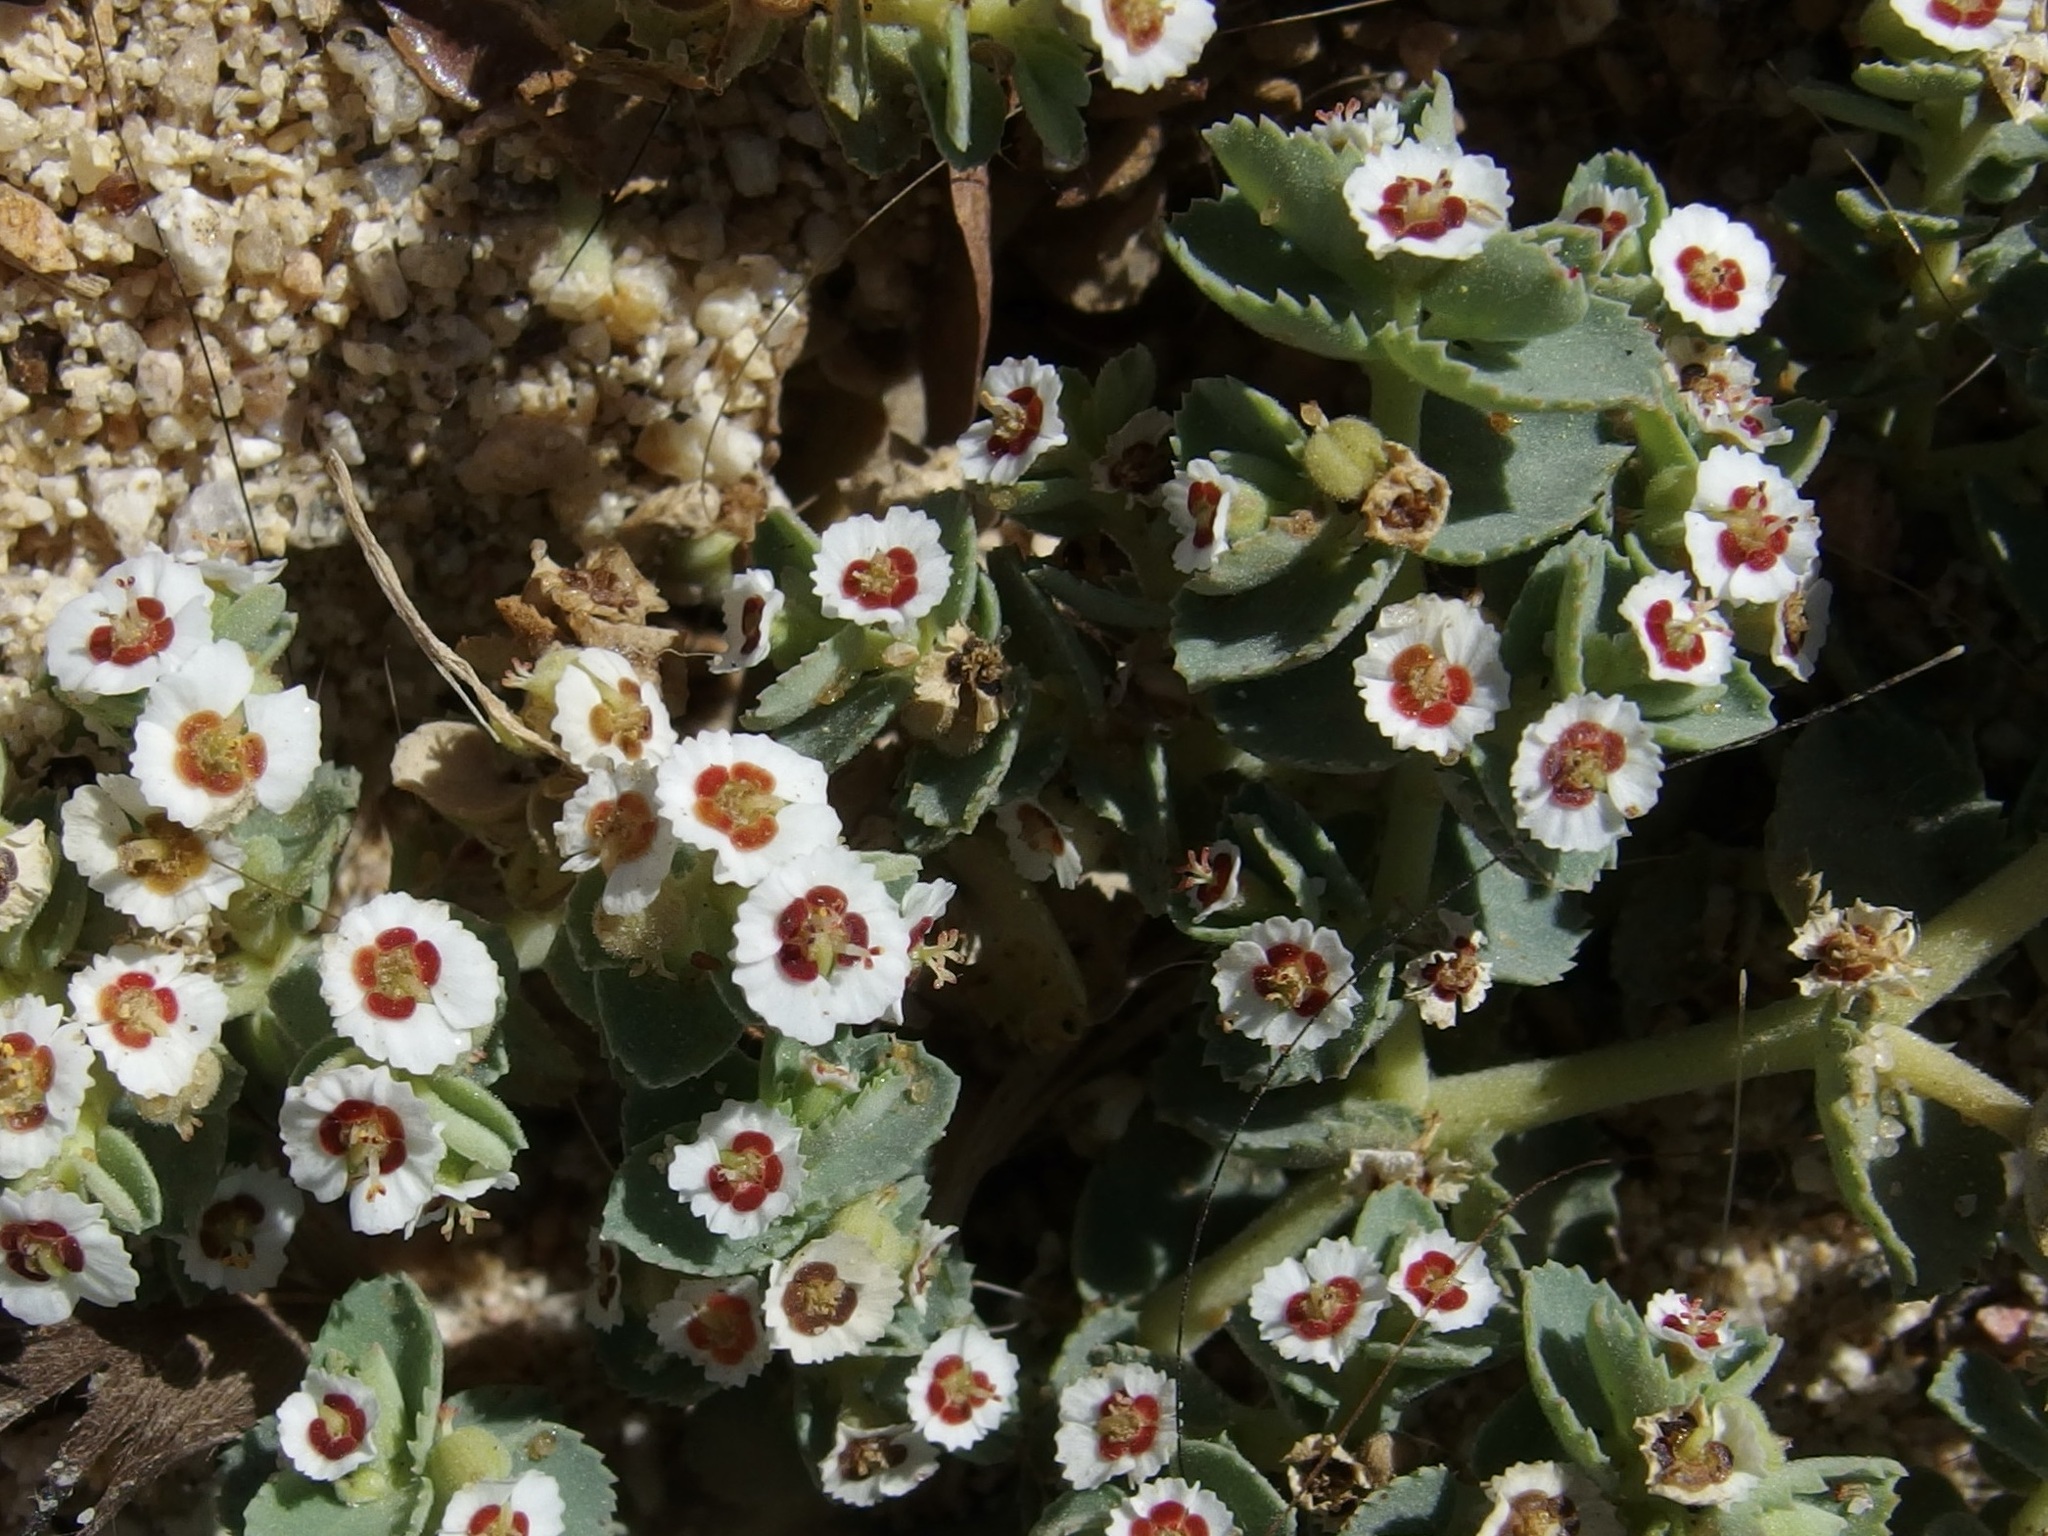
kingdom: Plantae
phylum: Tracheophyta
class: Magnoliopsida
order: Malpighiales
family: Euphorbiaceae
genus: Euphorbia
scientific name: Euphorbia leucophylla
